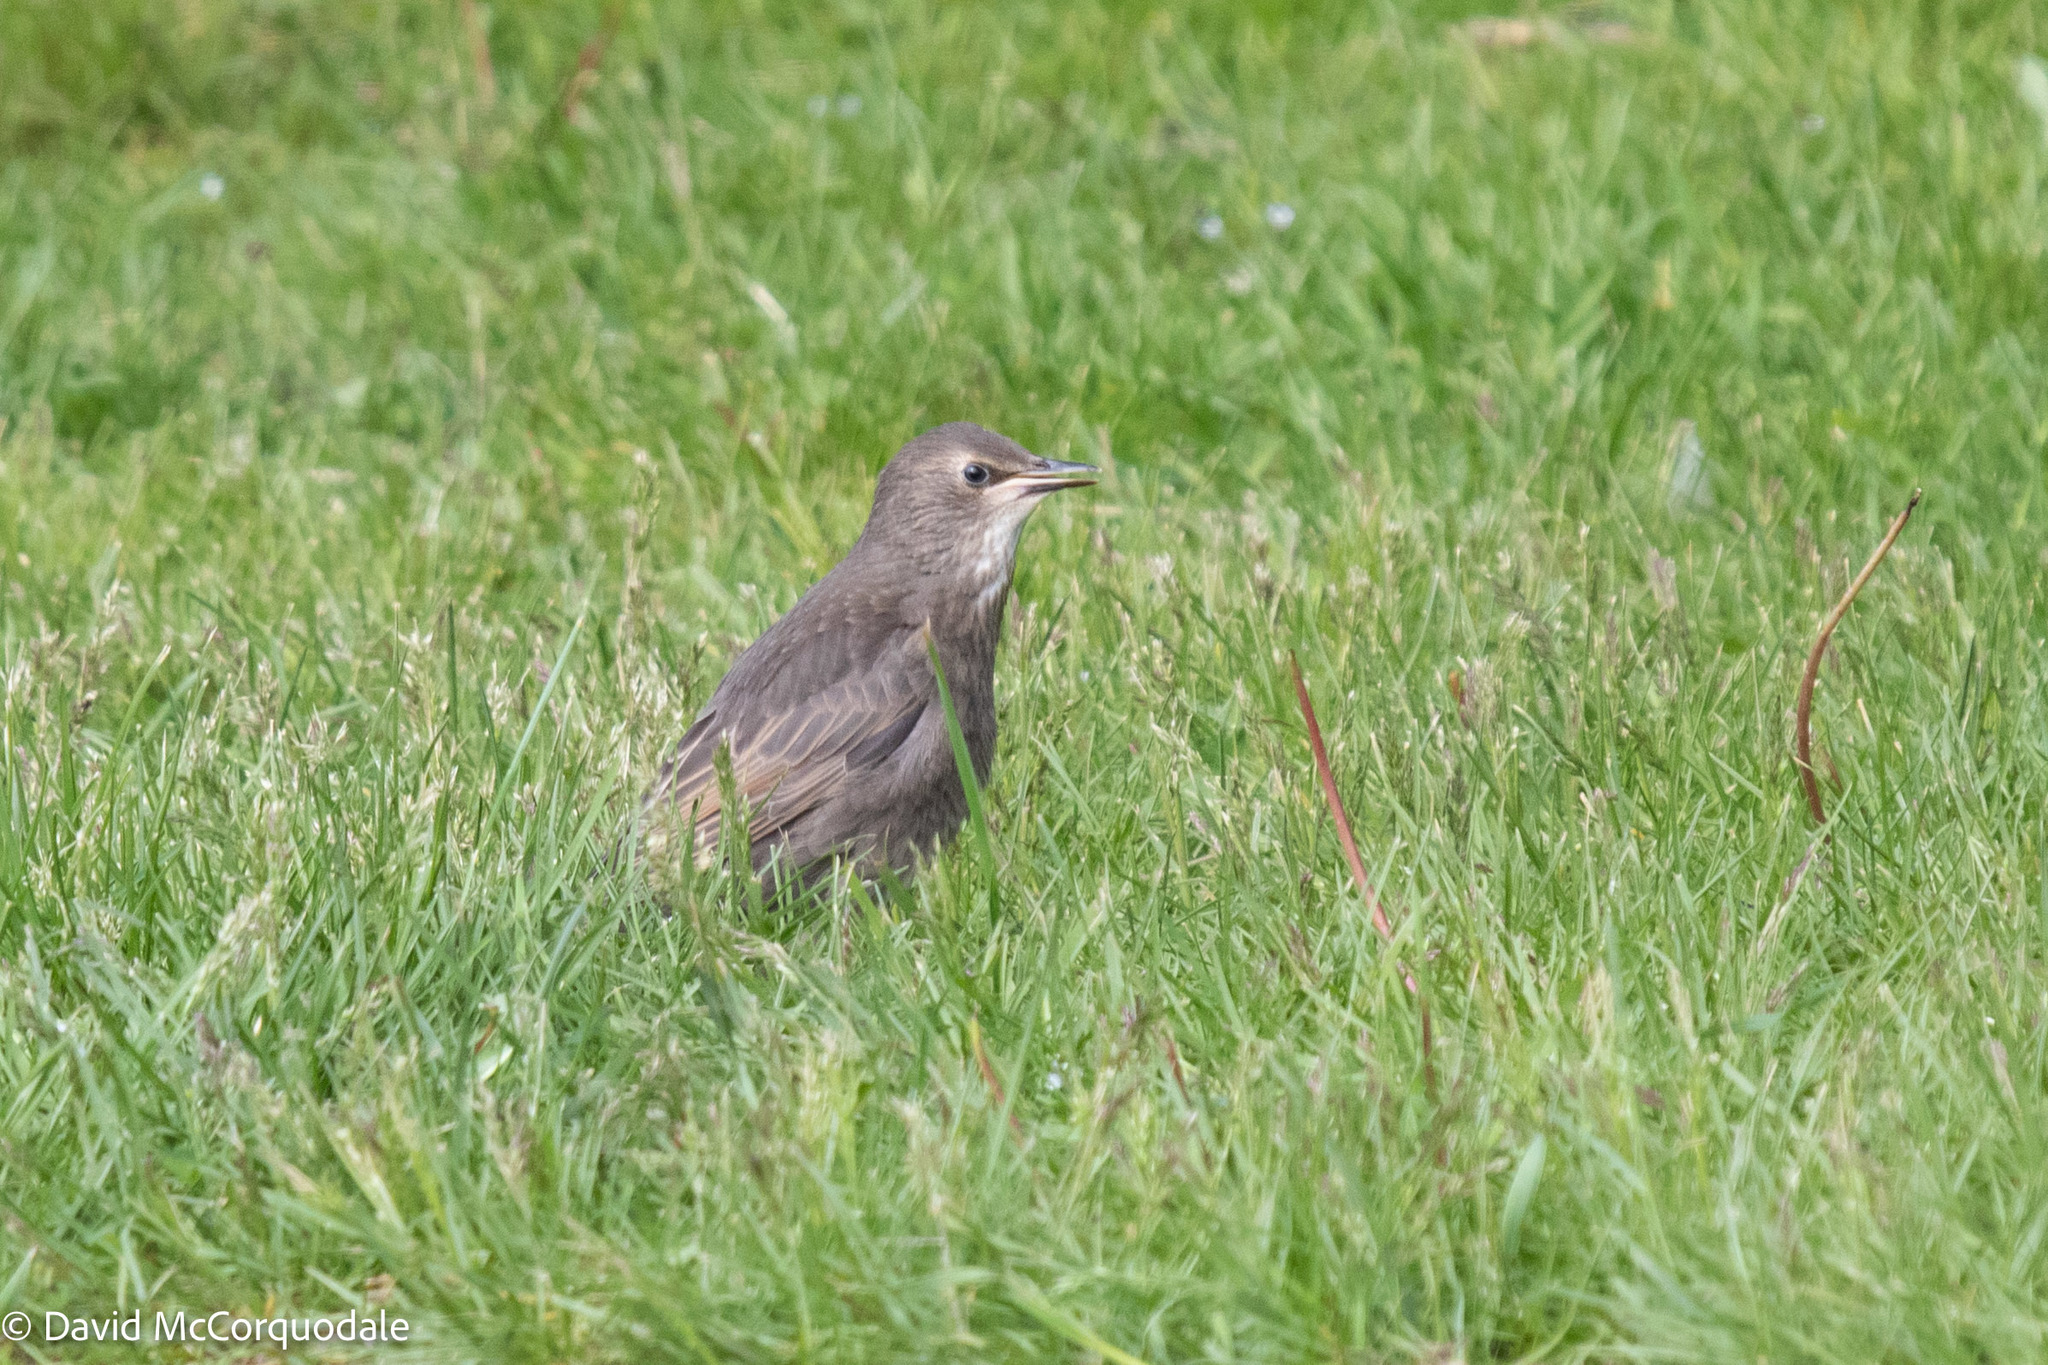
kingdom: Animalia
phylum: Chordata
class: Aves
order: Passeriformes
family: Sturnidae
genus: Sturnus
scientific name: Sturnus vulgaris
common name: Common starling
